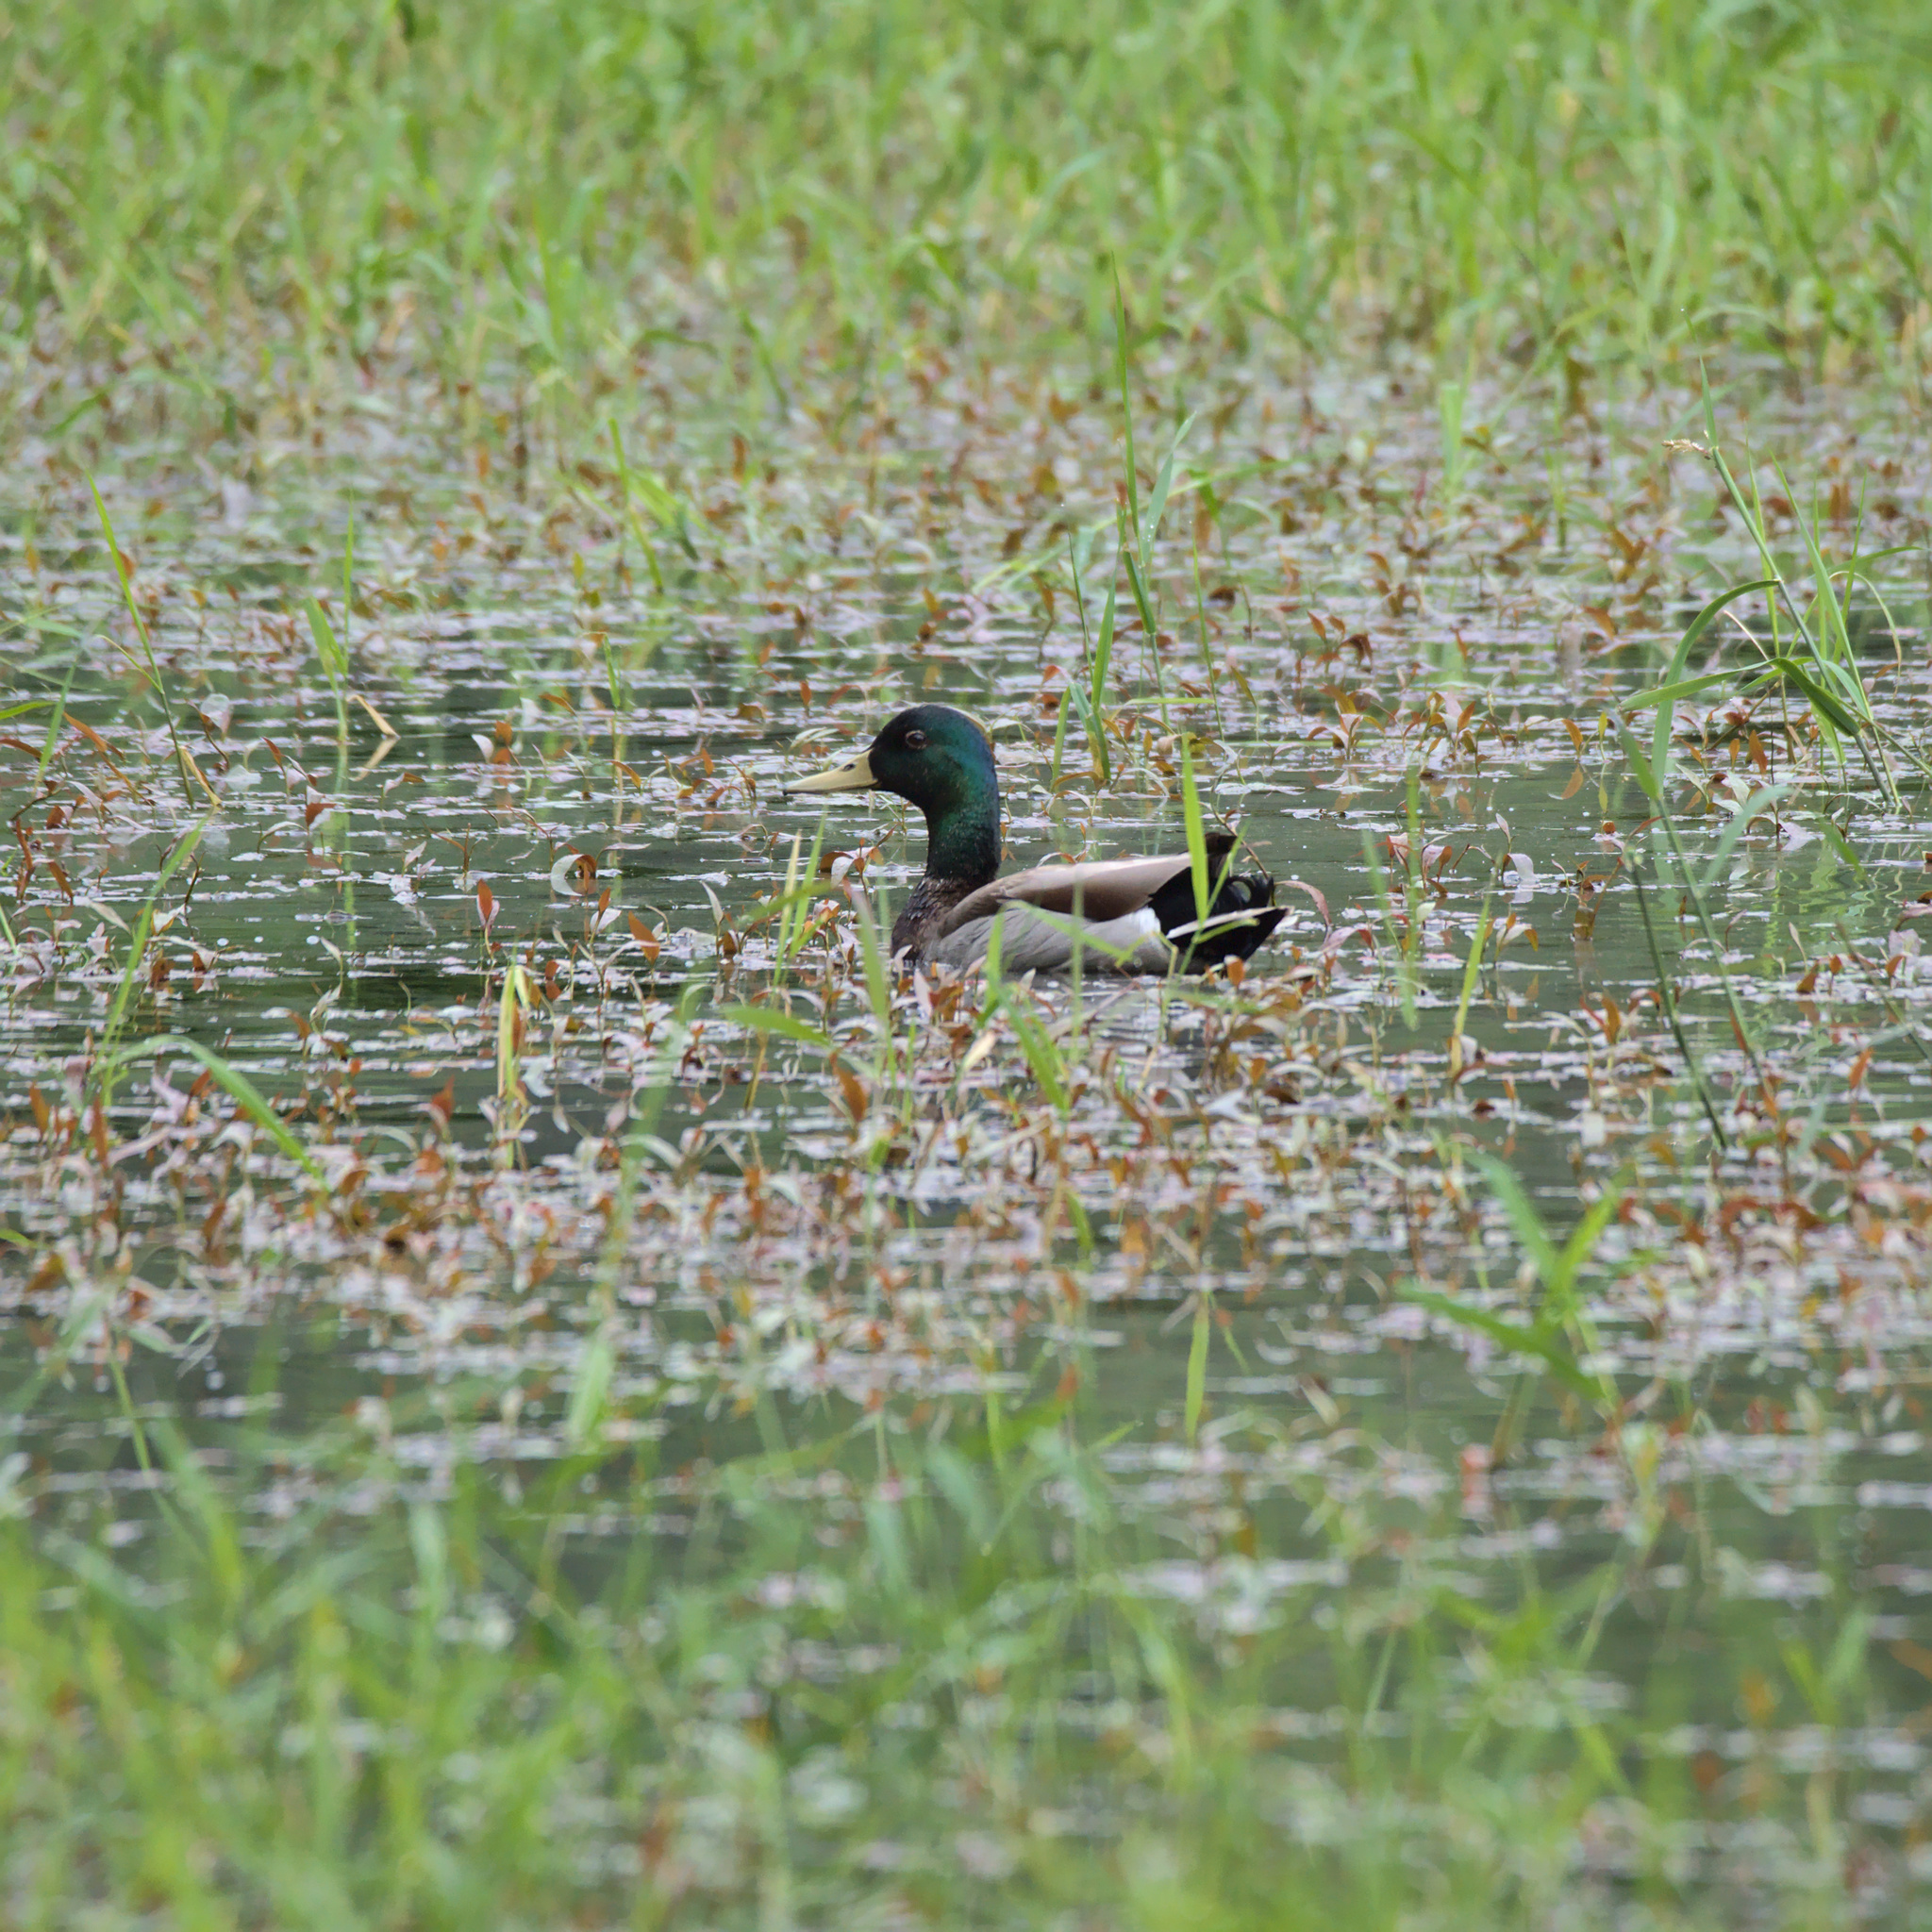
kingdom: Animalia
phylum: Chordata
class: Aves
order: Anseriformes
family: Anatidae
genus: Anas
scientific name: Anas platyrhynchos
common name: Mallard
